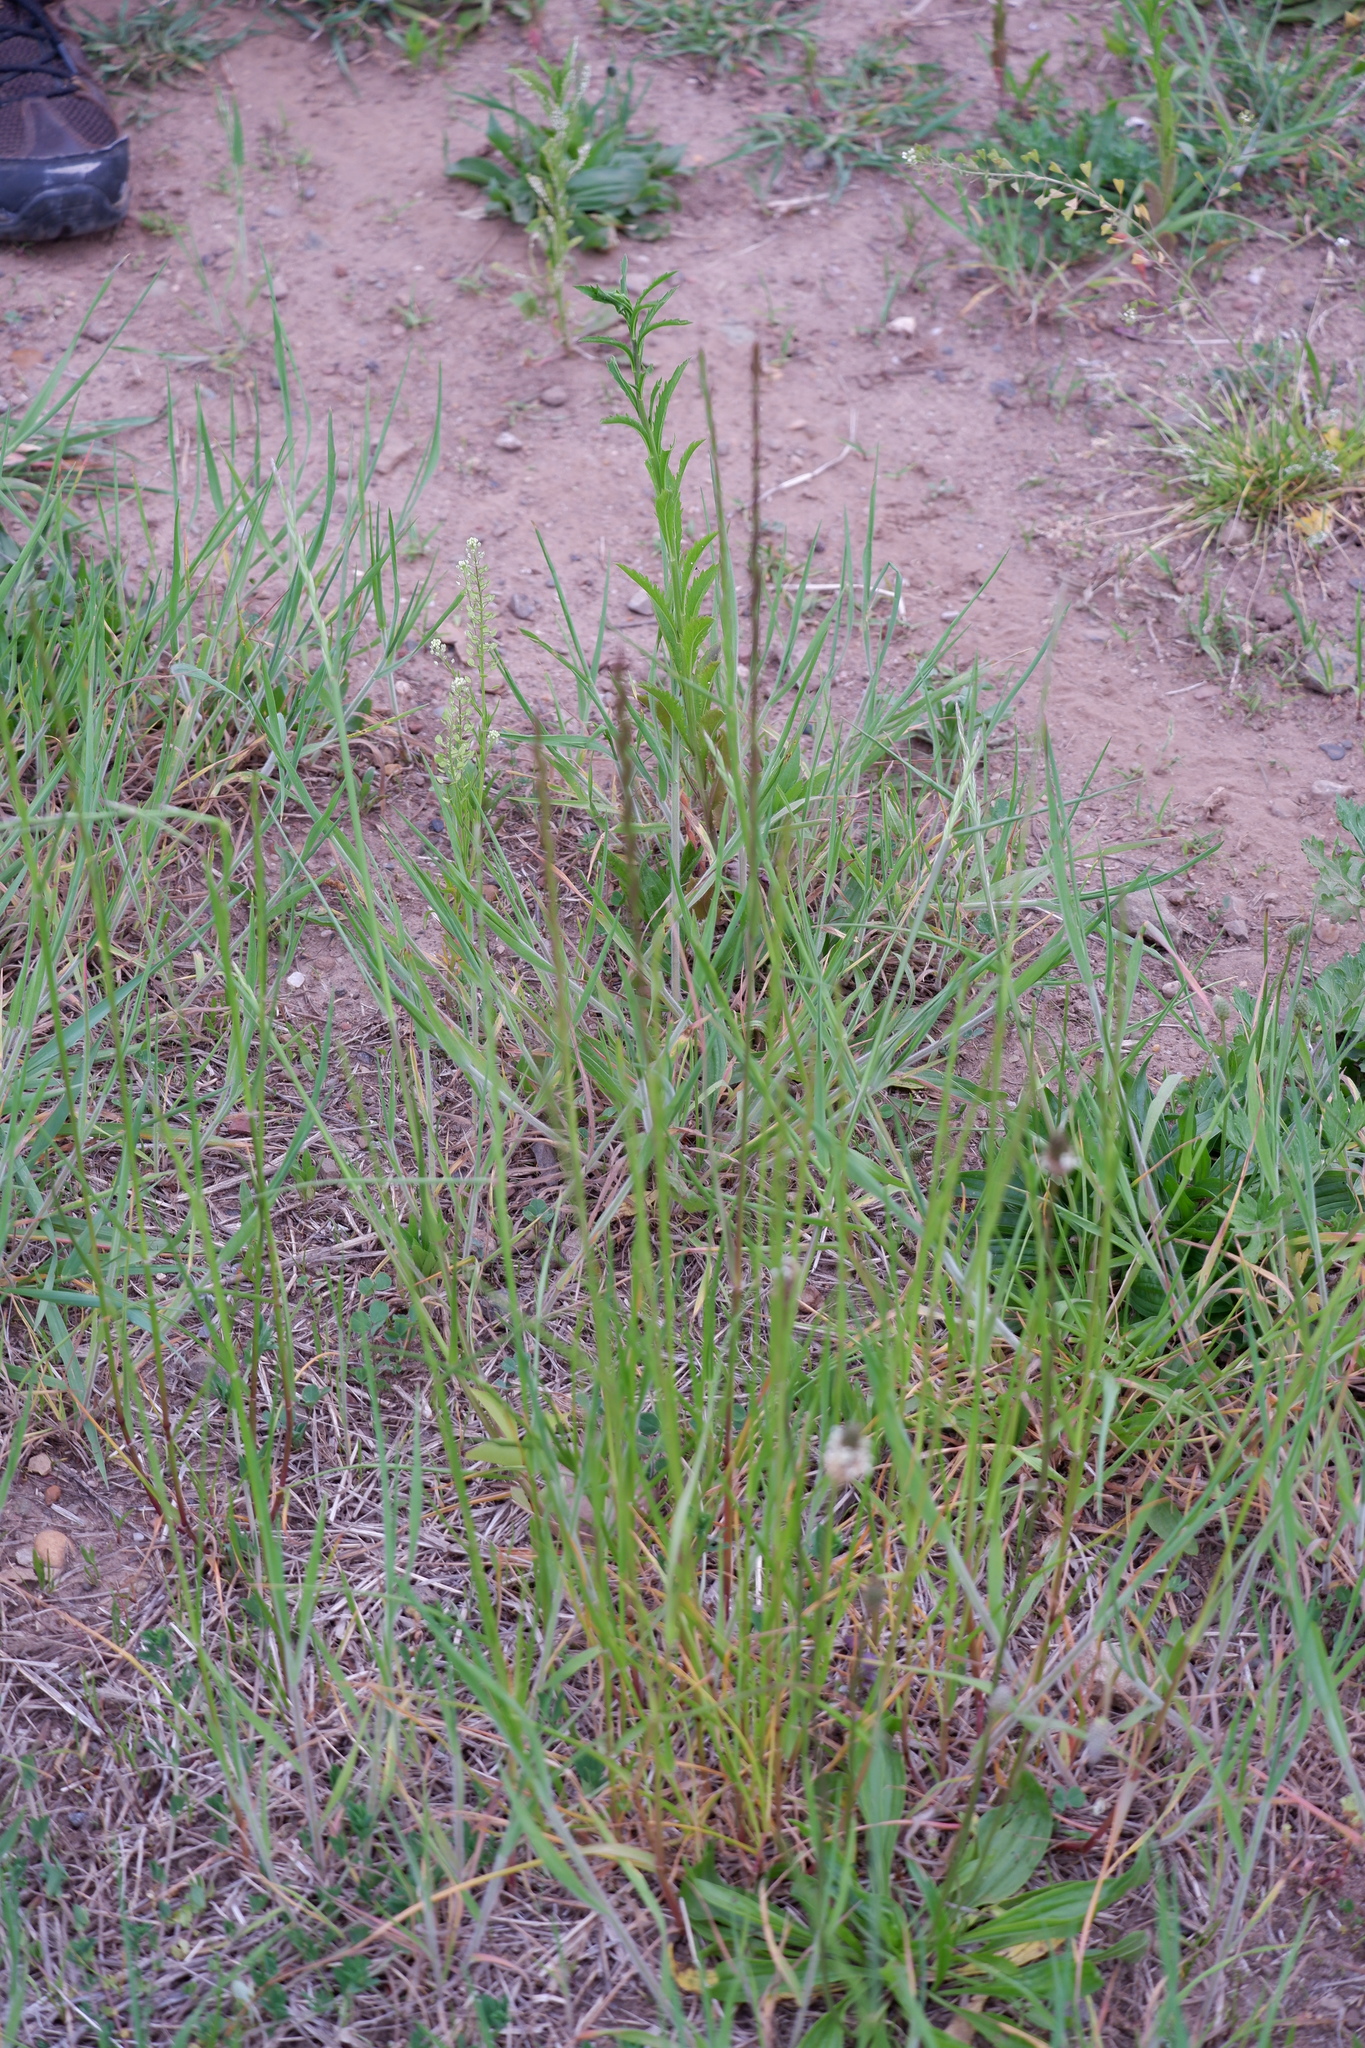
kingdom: Plantae
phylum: Tracheophyta
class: Magnoliopsida
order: Brassicales
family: Brassicaceae
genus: Lepidium
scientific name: Lepidium virginicum
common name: Least pepperwort
